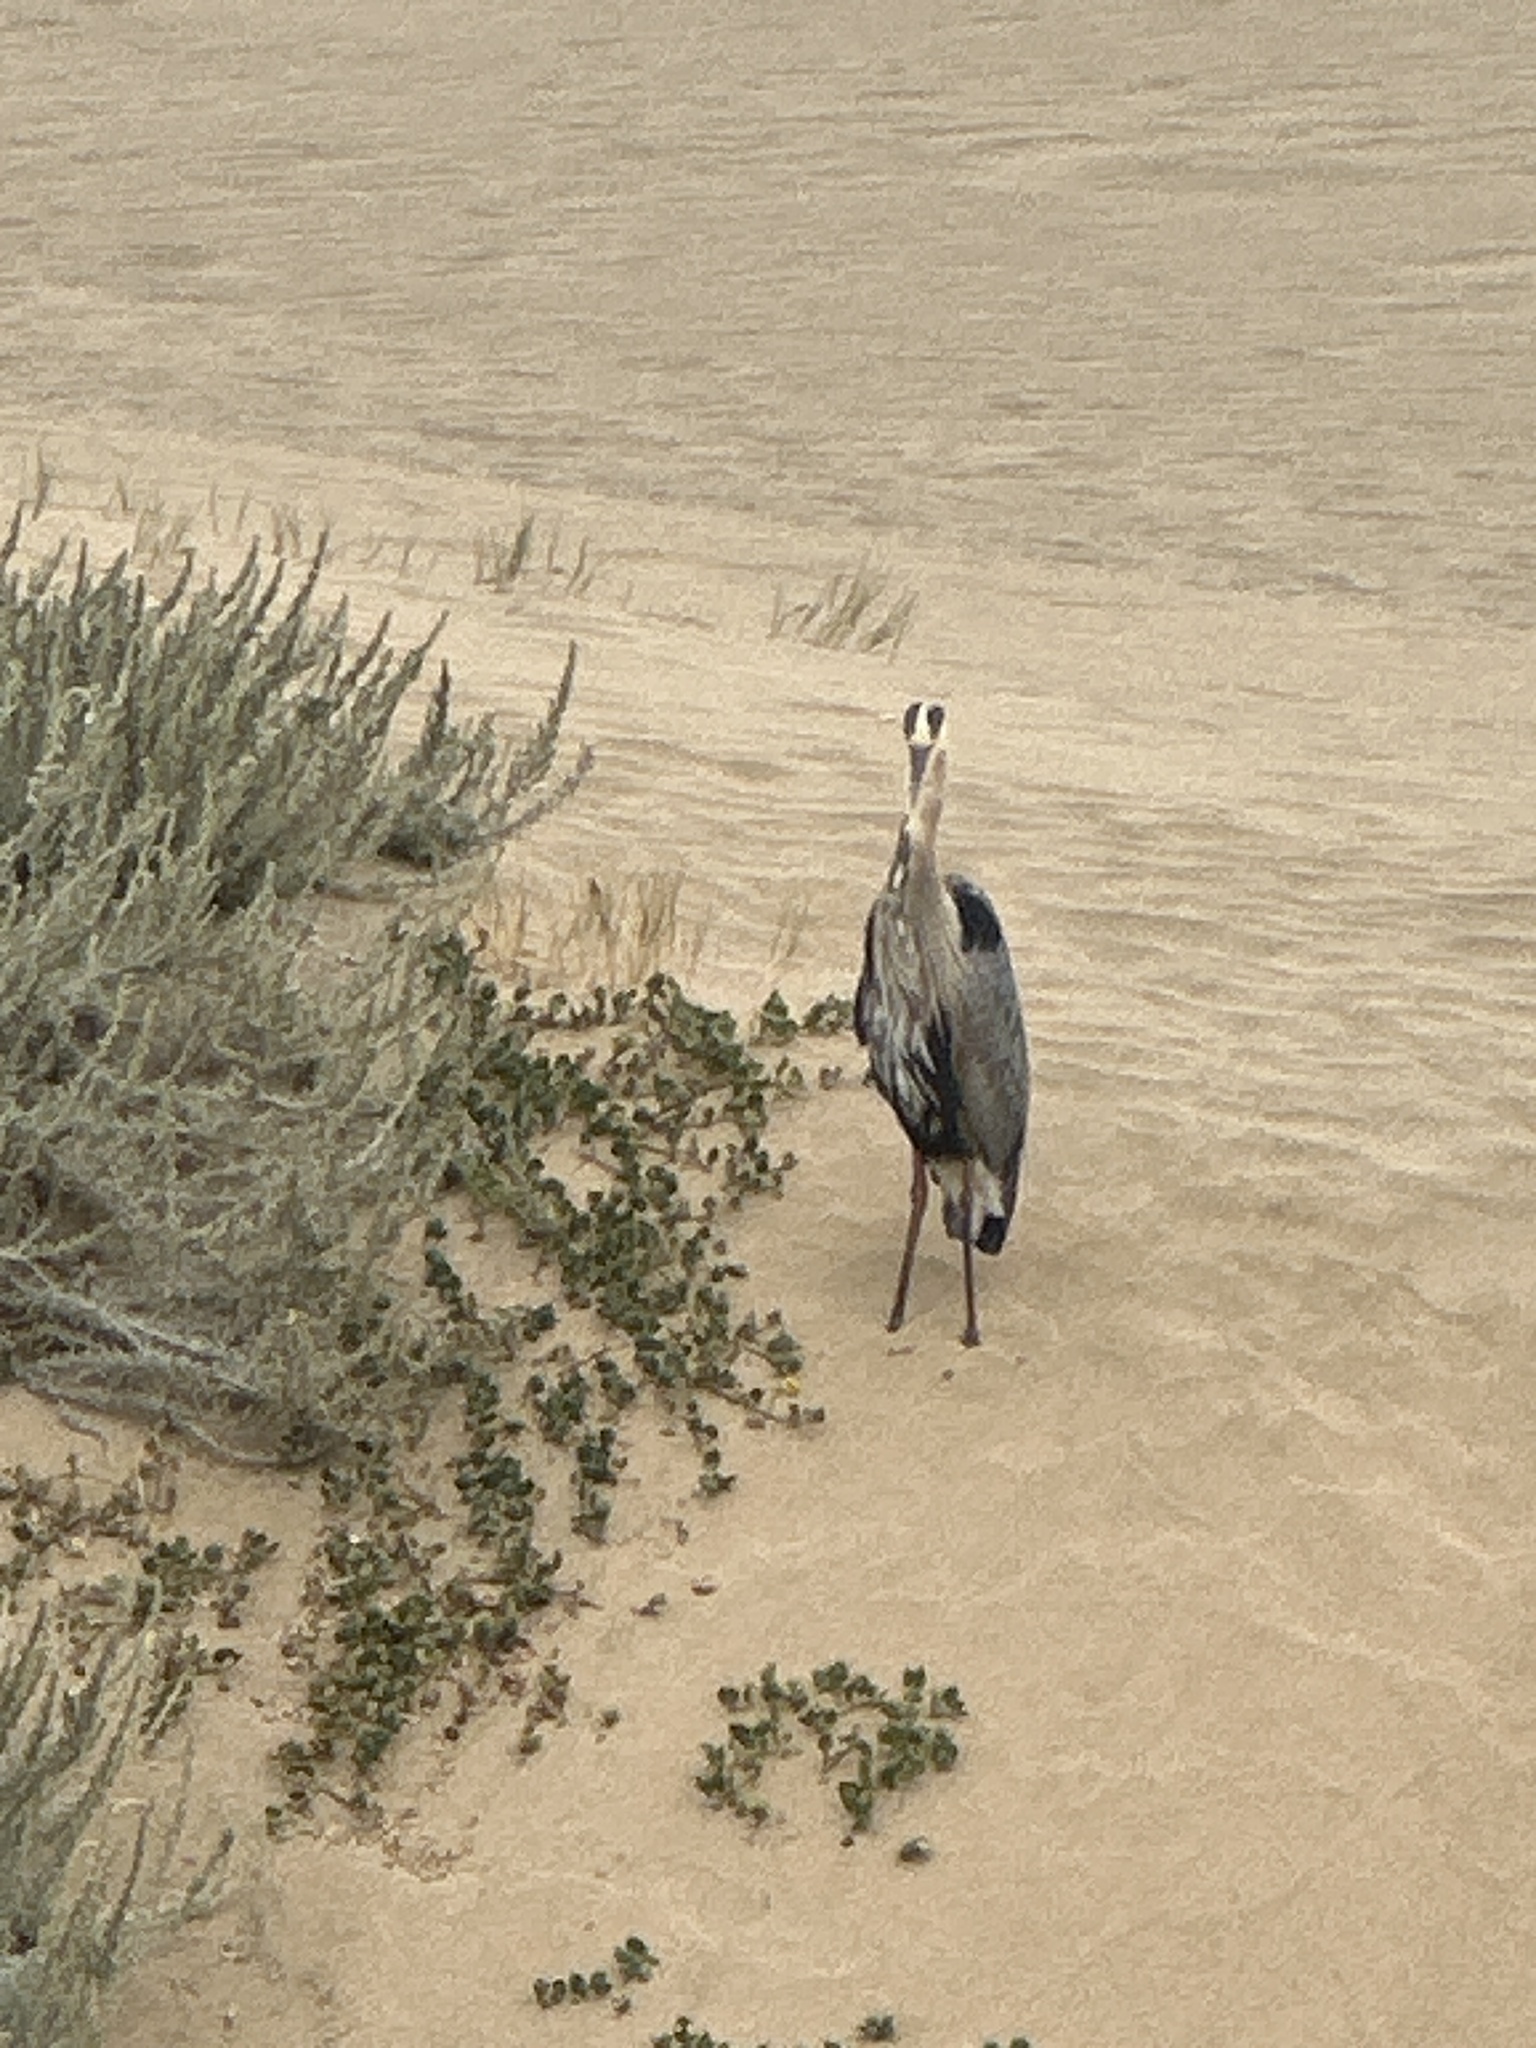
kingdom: Animalia
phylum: Chordata
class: Aves
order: Pelecaniformes
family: Ardeidae
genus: Ardea
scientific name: Ardea herodias
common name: Great blue heron
